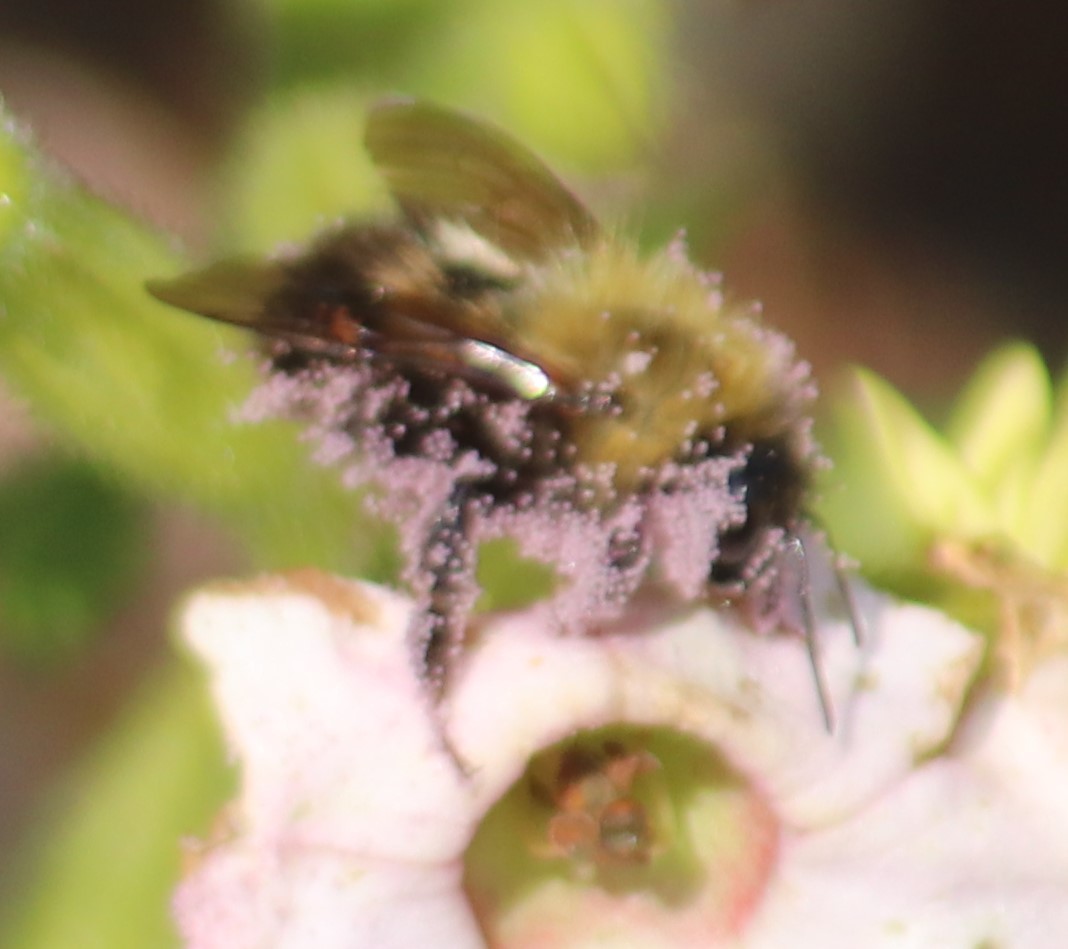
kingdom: Animalia
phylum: Arthropoda
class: Insecta
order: Hymenoptera
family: Apidae
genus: Bombus
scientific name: Bombus perplexus
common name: Confusing bumble bee
